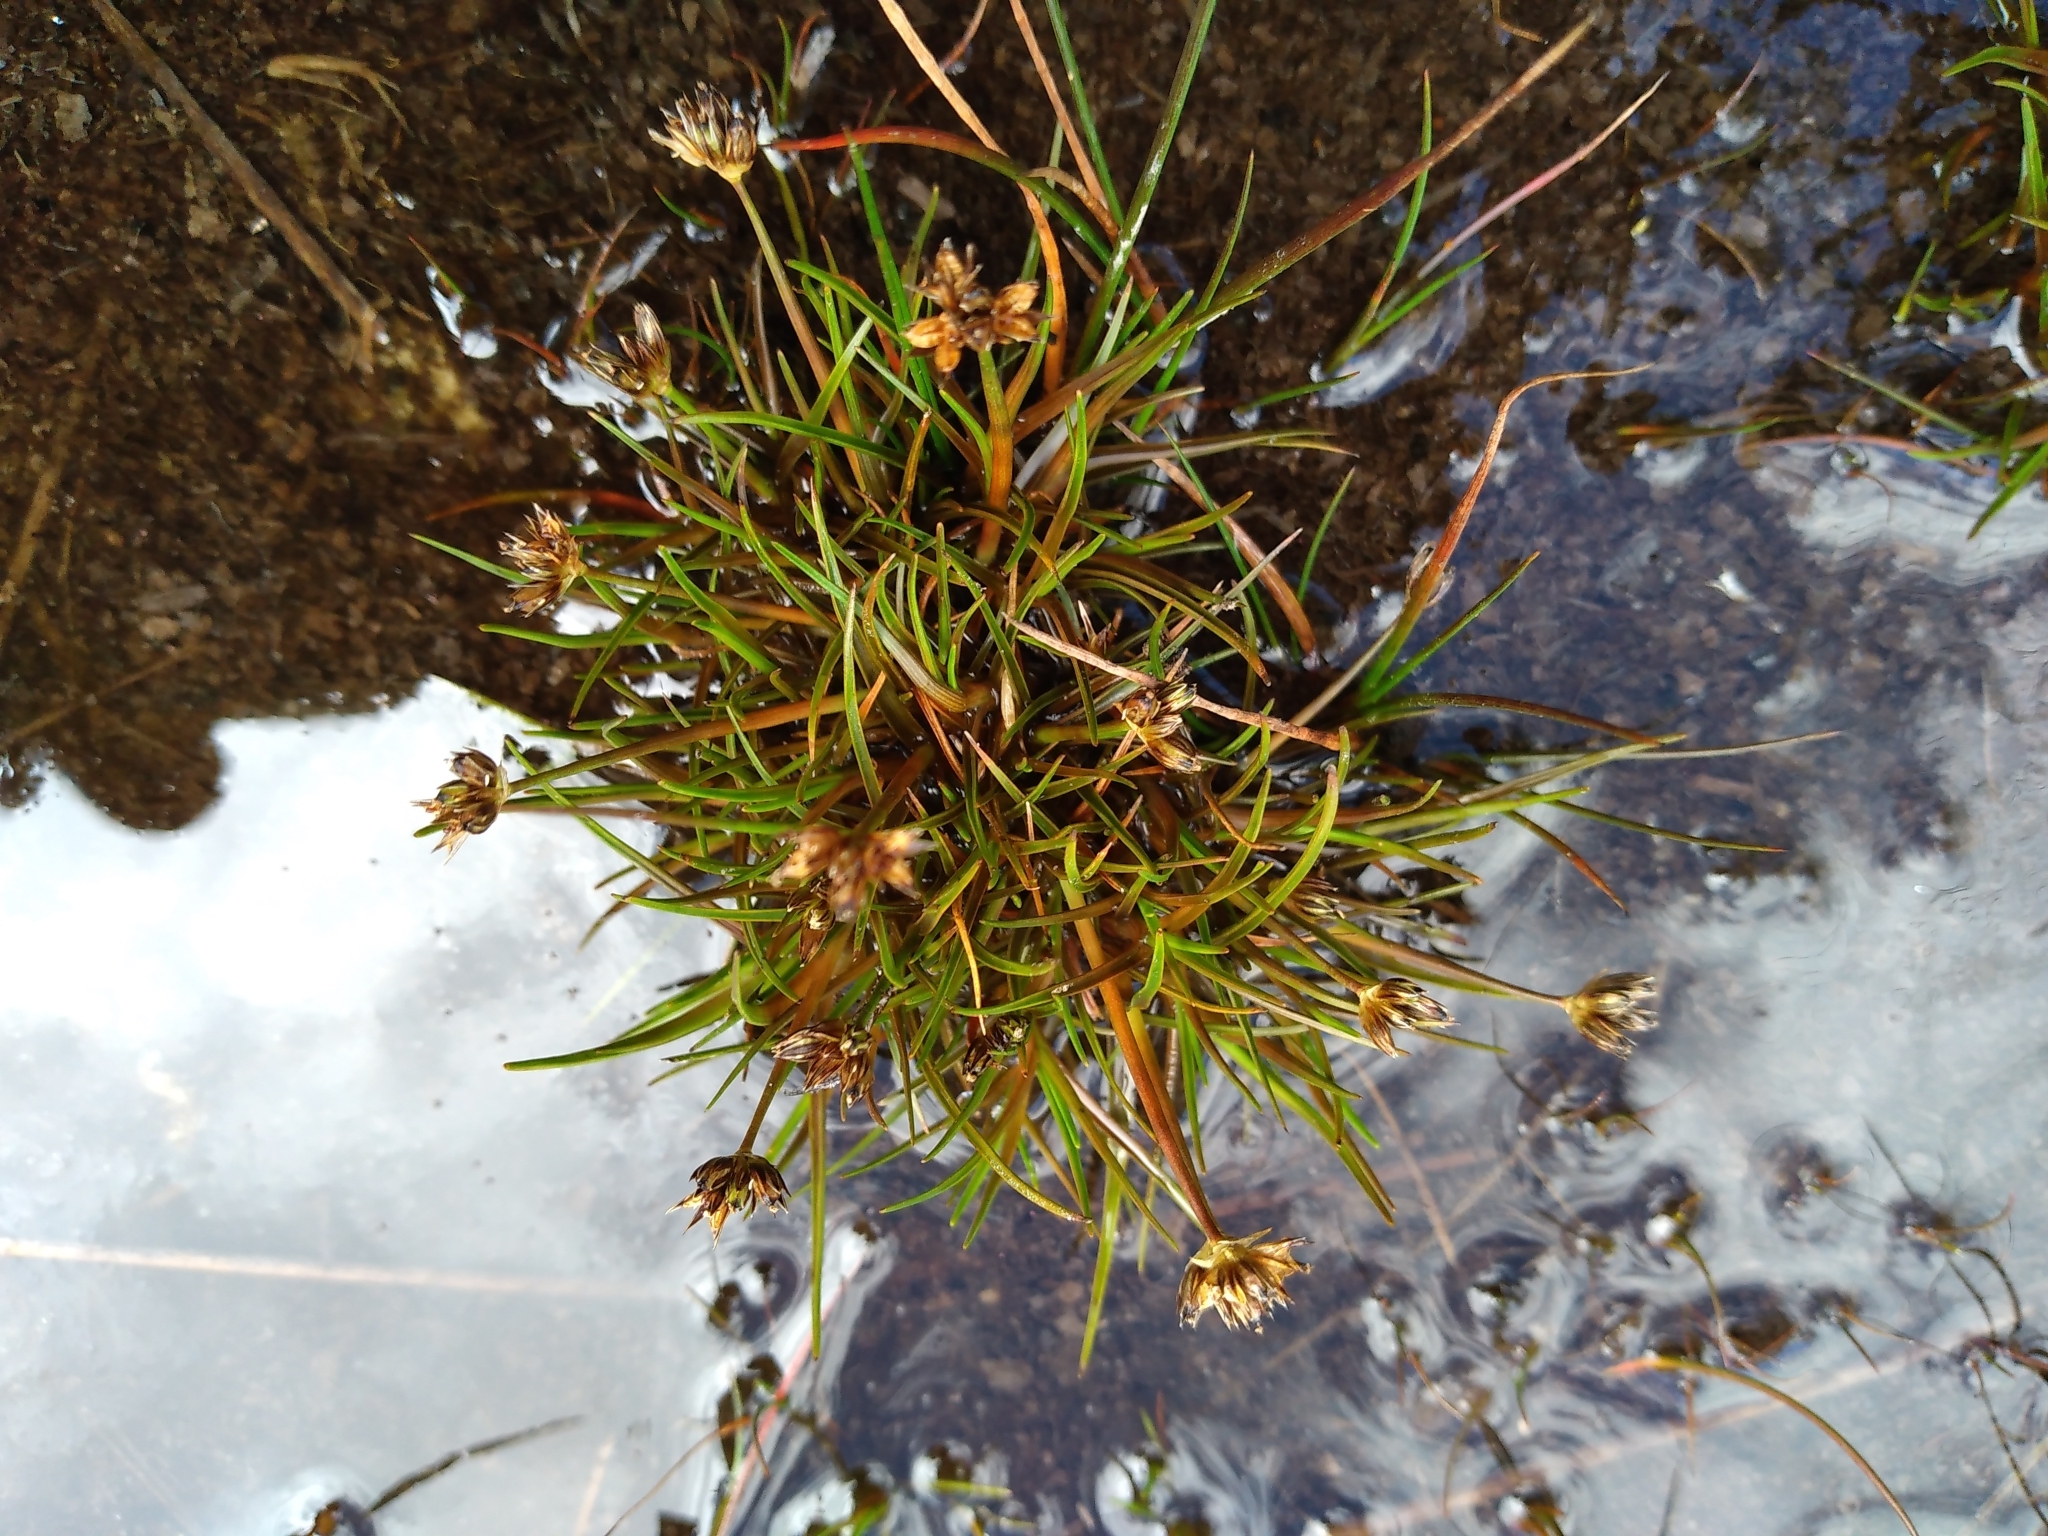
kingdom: Plantae
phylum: Tracheophyta
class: Liliopsida
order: Poales
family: Juncaceae
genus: Juncus
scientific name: Juncus antarcticus
